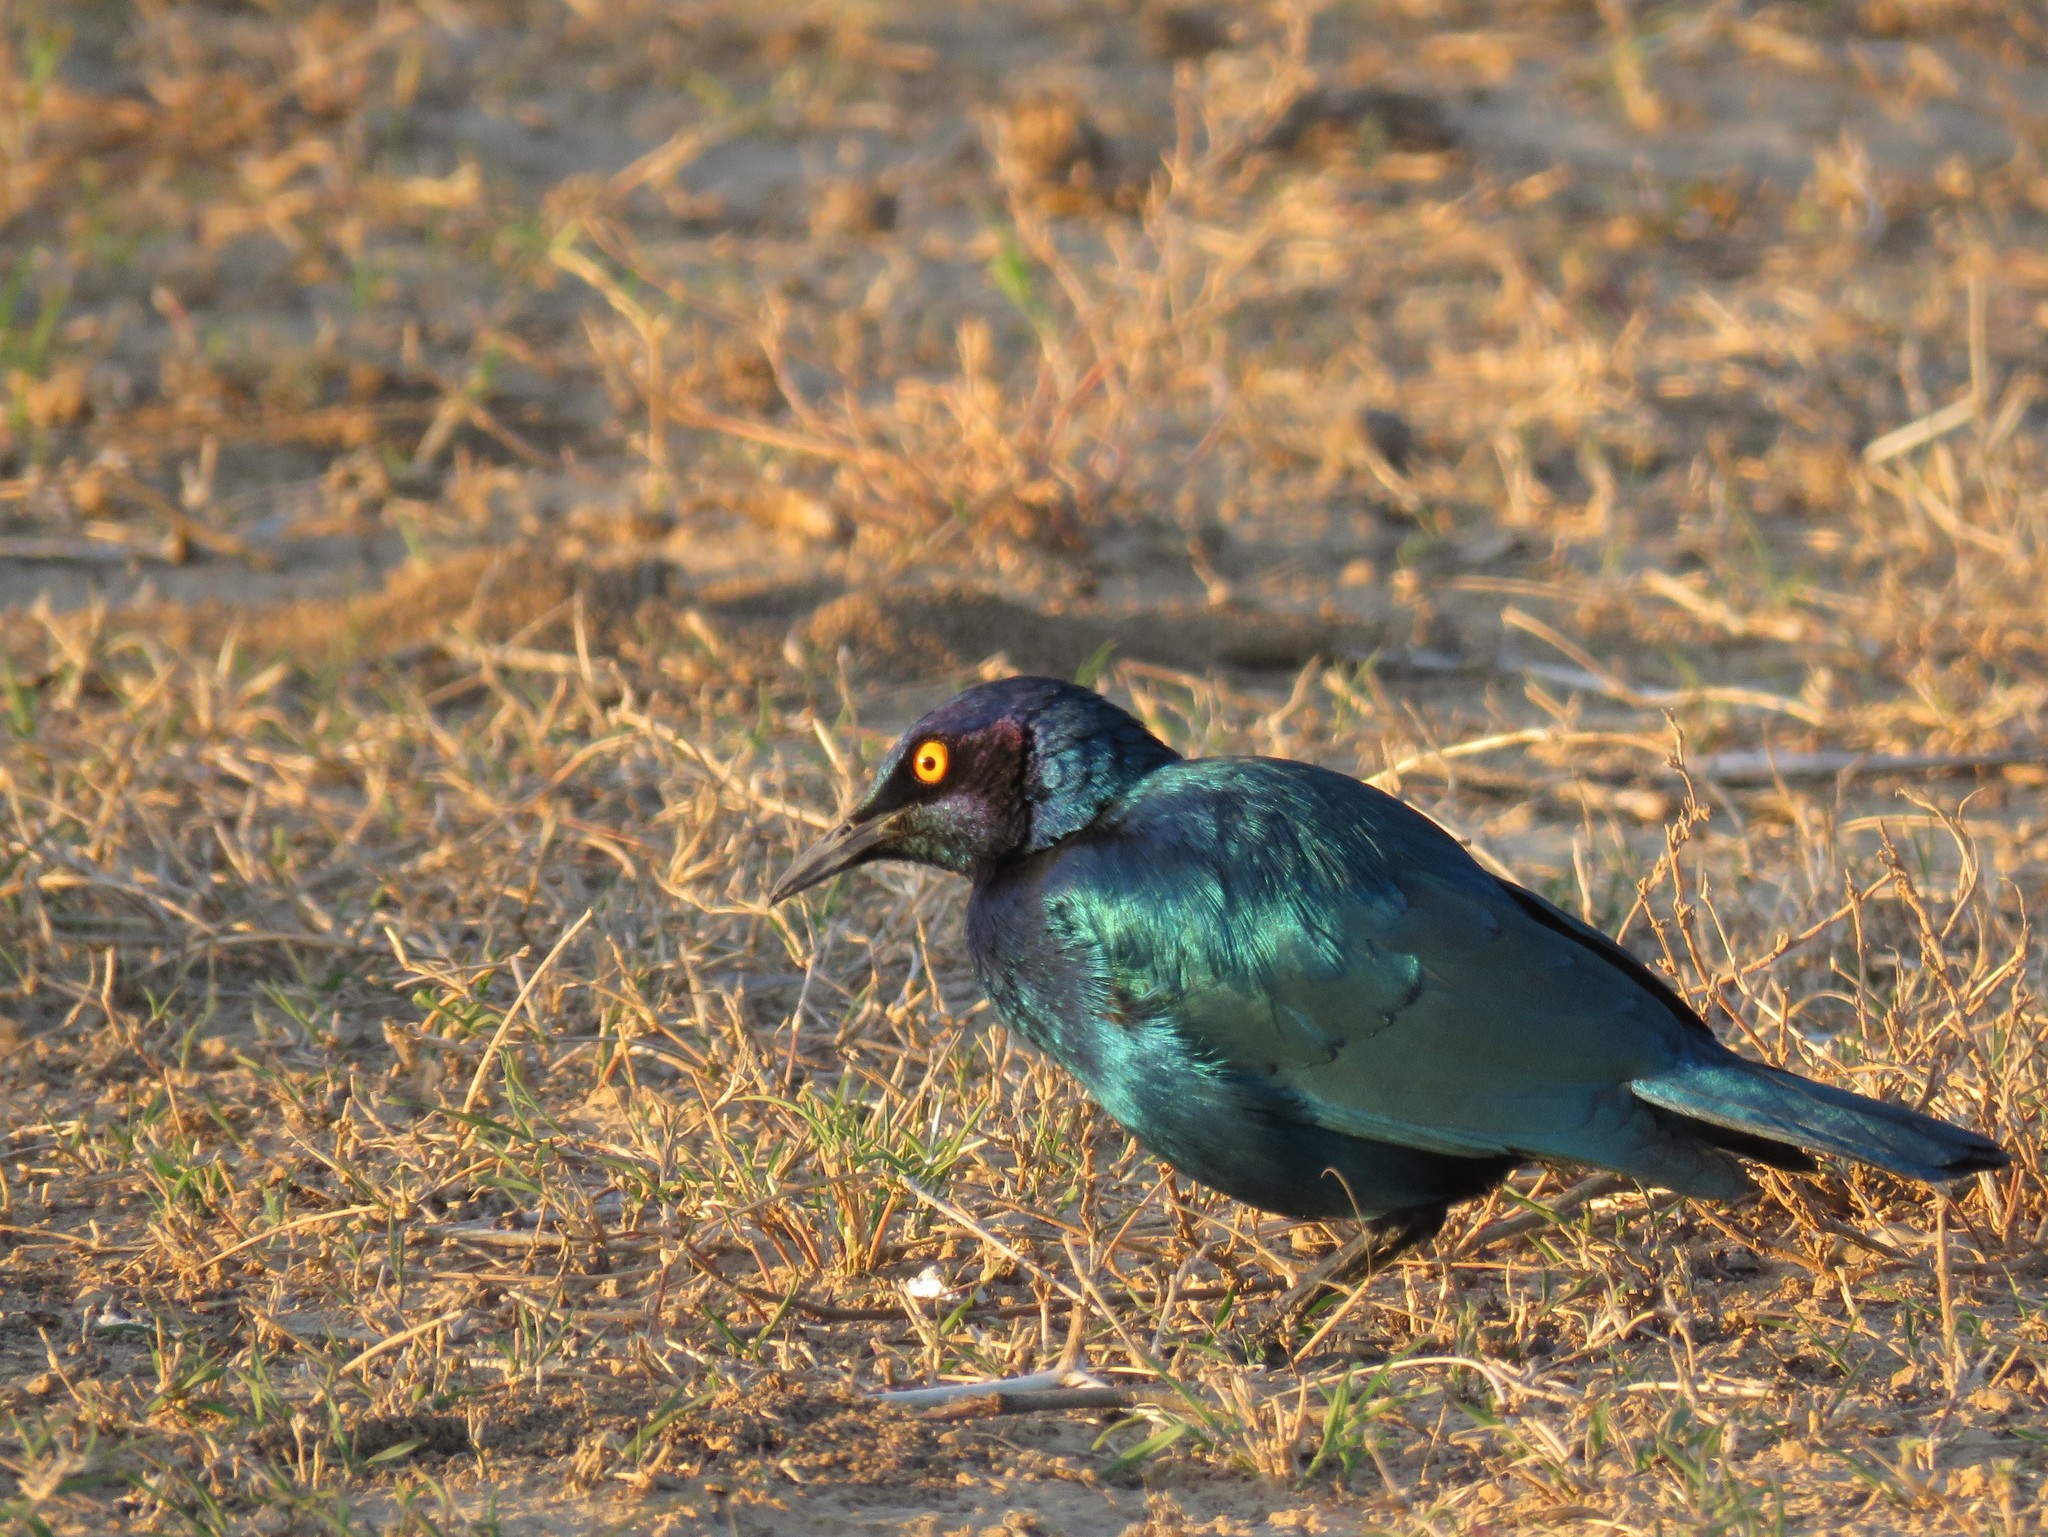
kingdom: Animalia
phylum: Chordata
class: Aves
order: Passeriformes
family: Sturnidae
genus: Lamprotornis
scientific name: Lamprotornis nitens
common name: Cape starling
